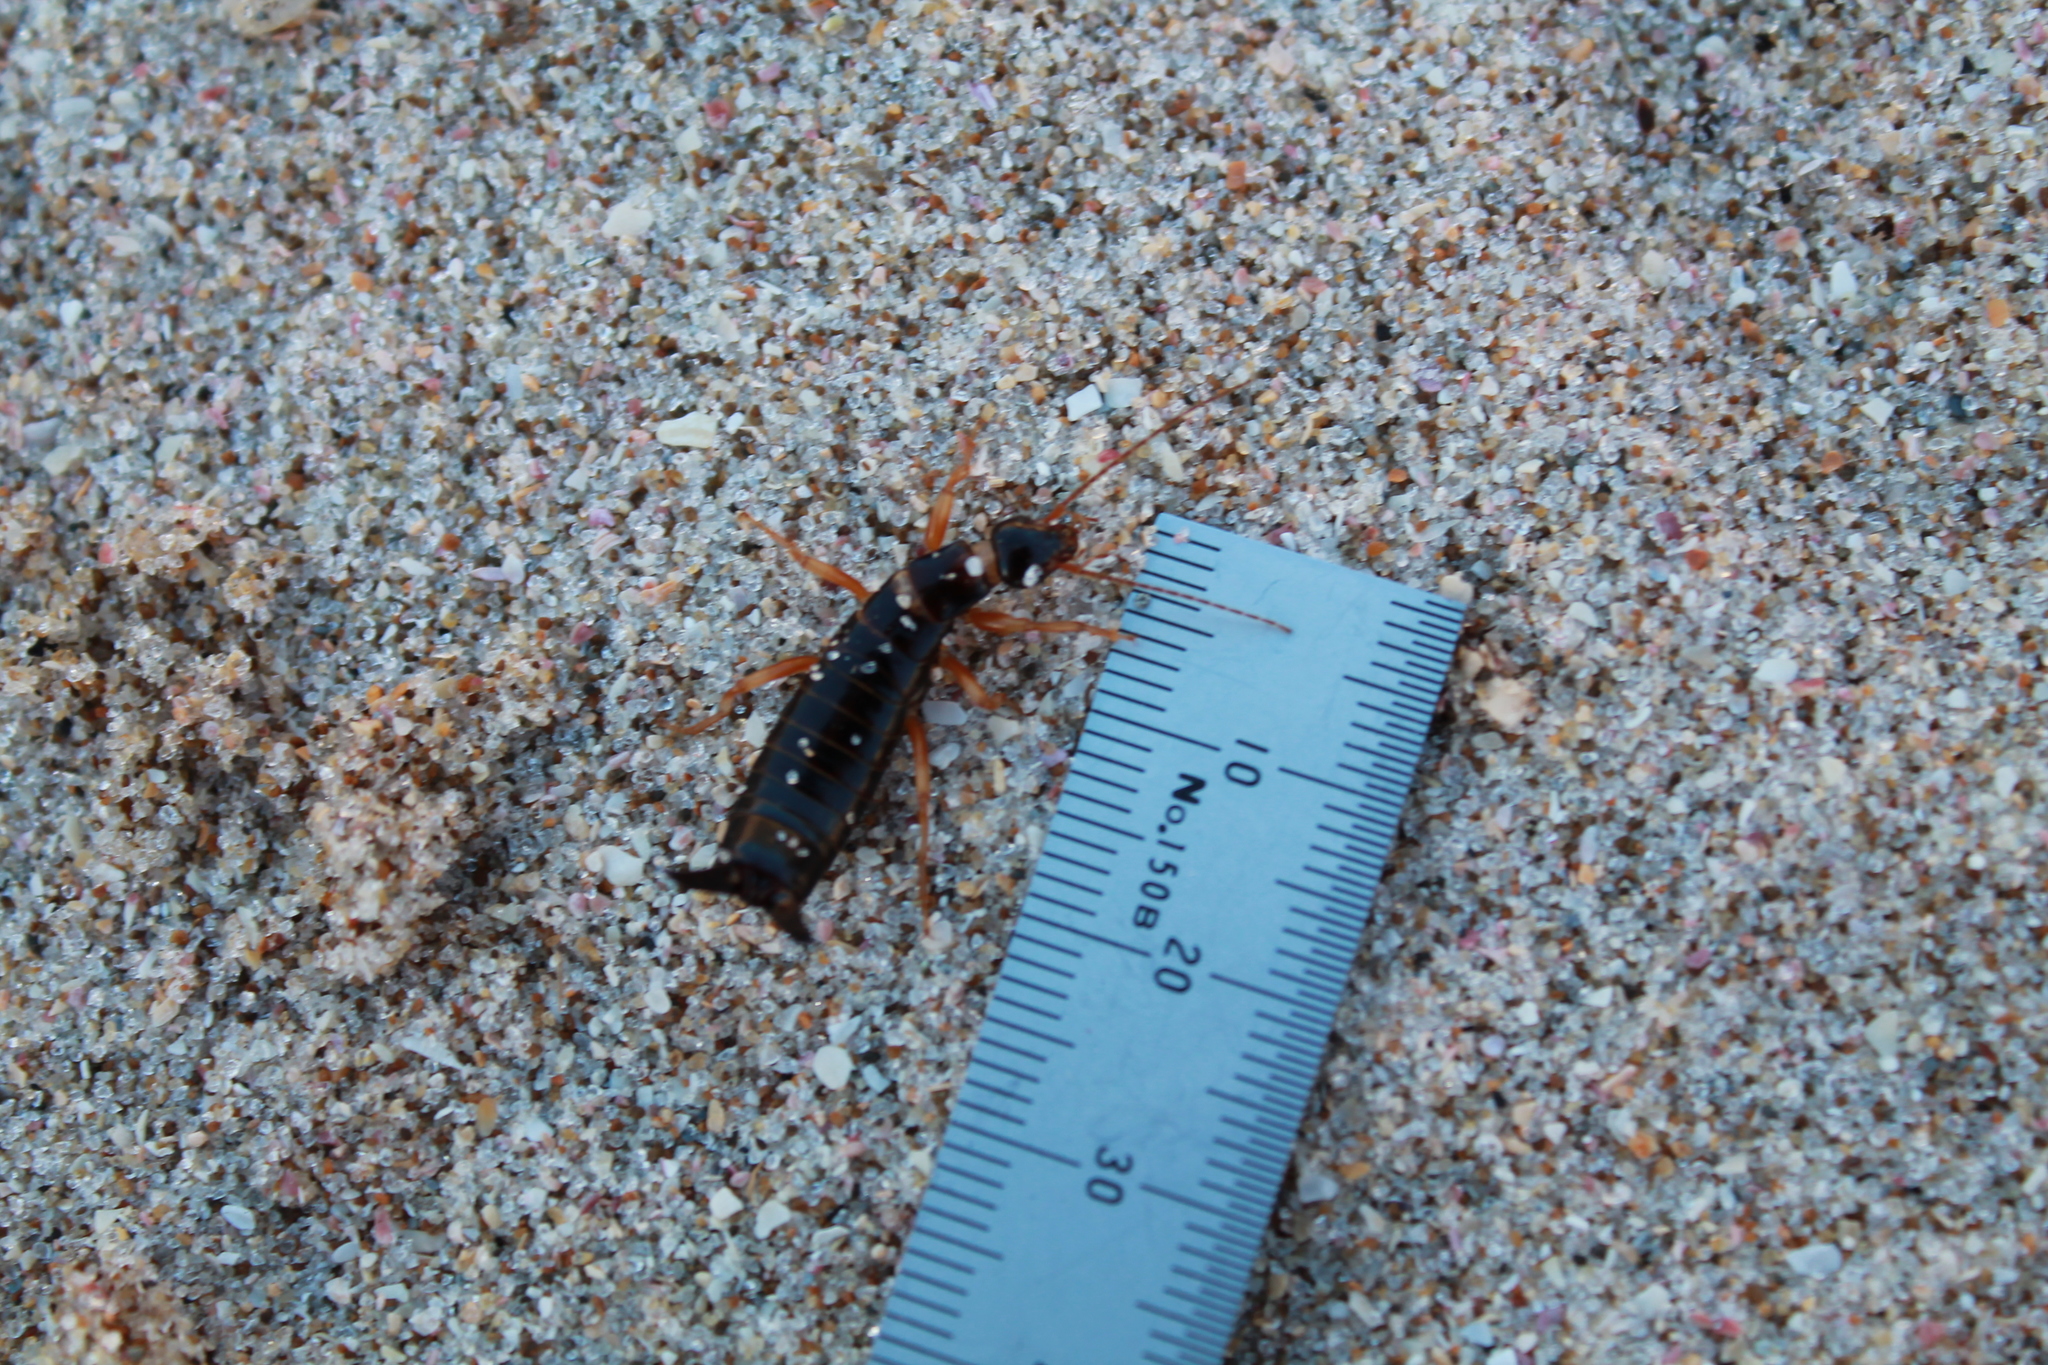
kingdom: Animalia
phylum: Arthropoda
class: Insecta
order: Dermaptera
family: Anisolabididae
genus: Anisolabis
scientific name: Anisolabis littorea
